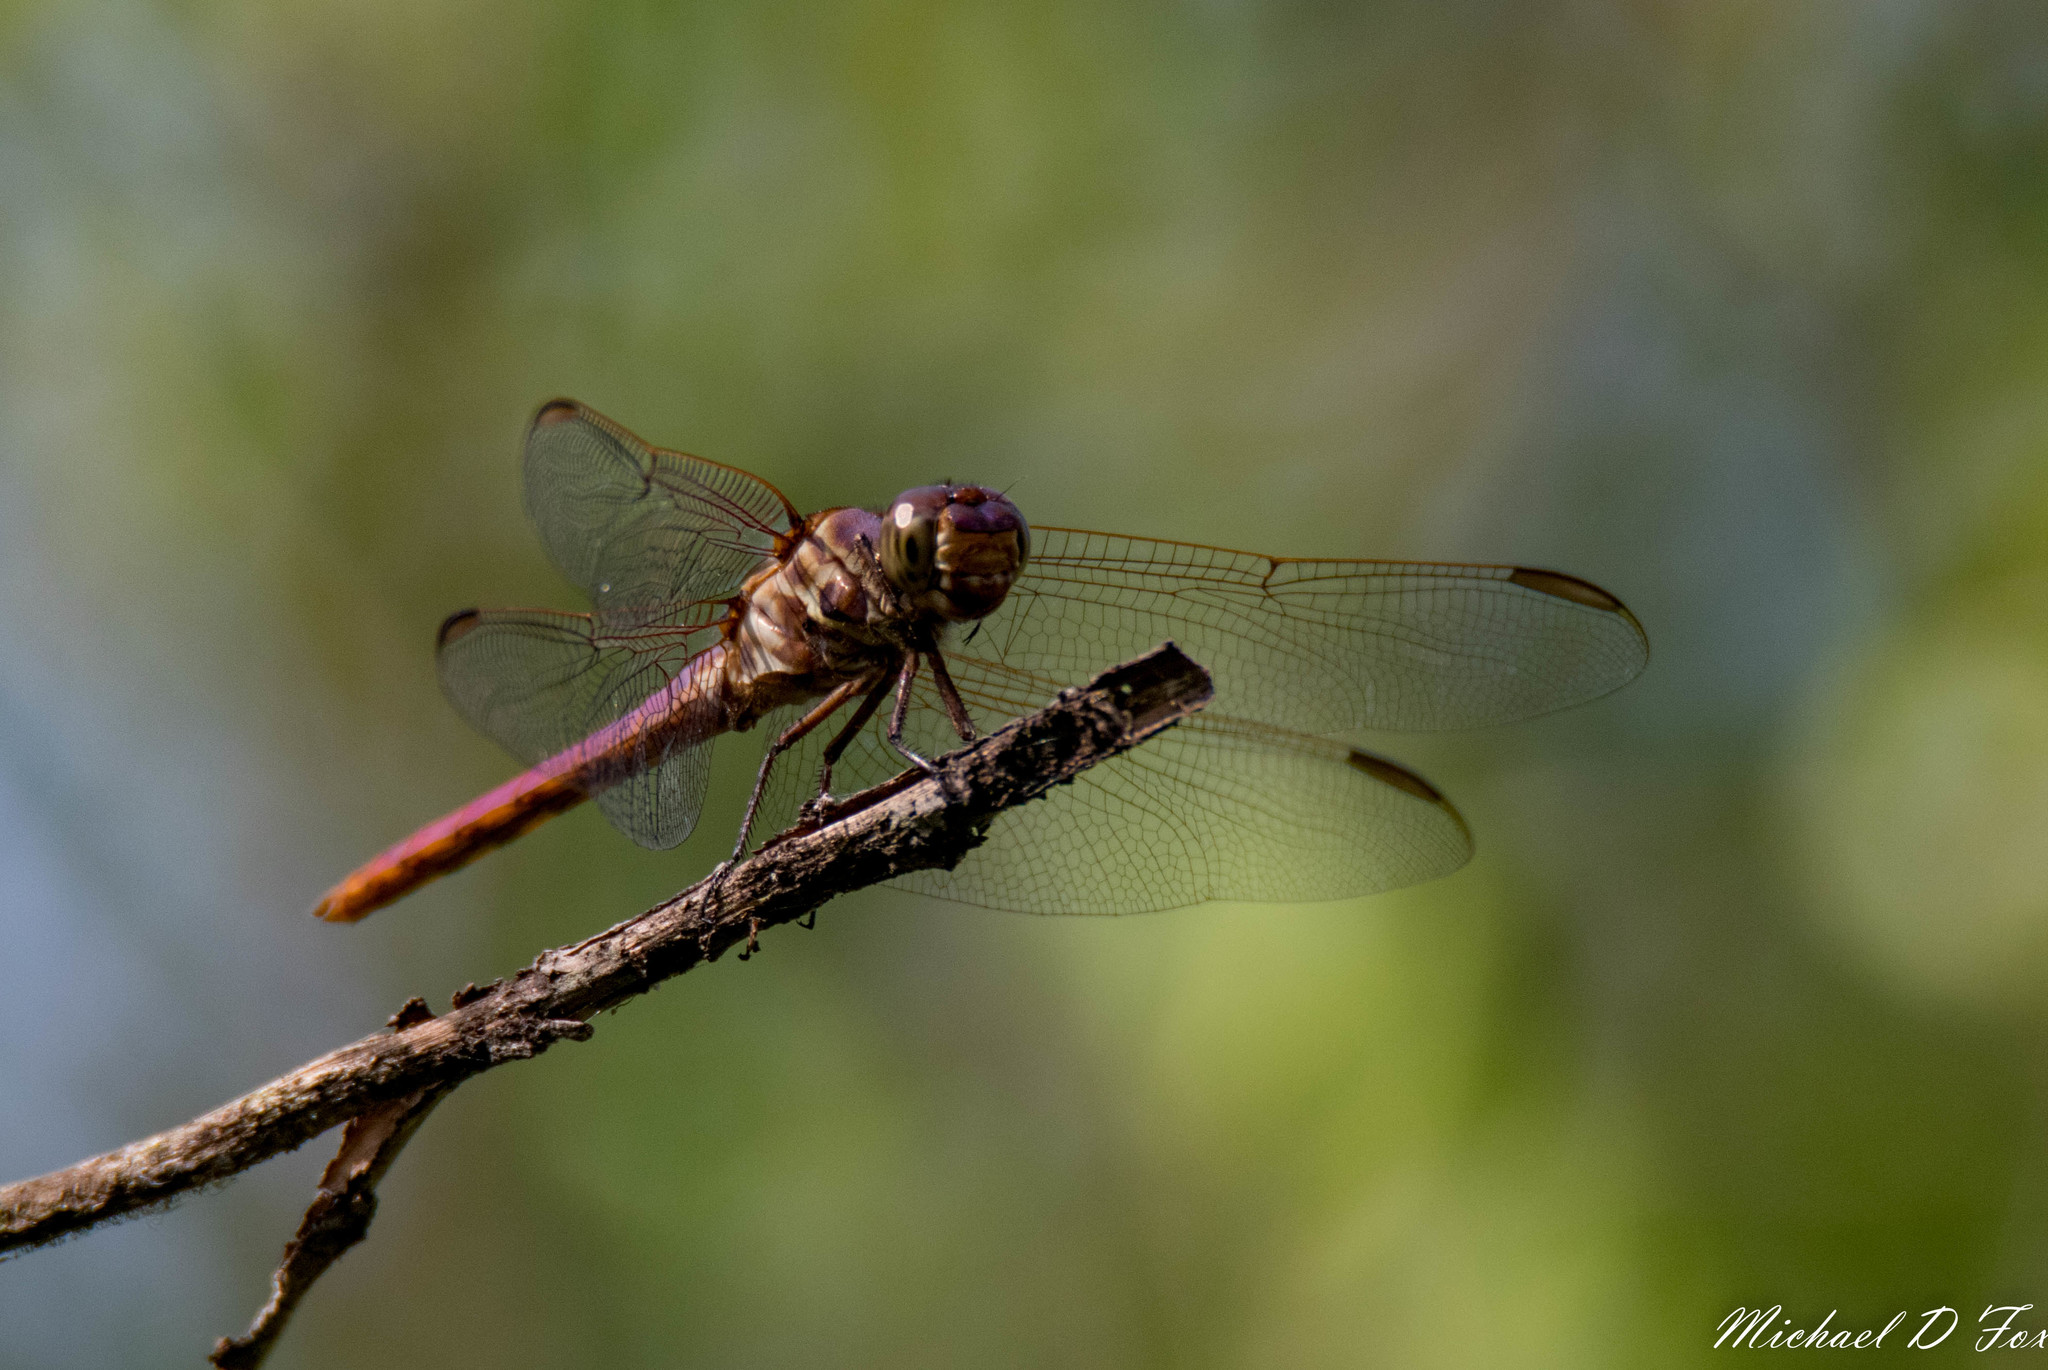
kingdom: Animalia
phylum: Arthropoda
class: Insecta
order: Odonata
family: Libellulidae
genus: Orthemis
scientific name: Orthemis ferruginea
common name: Roseate skimmer
